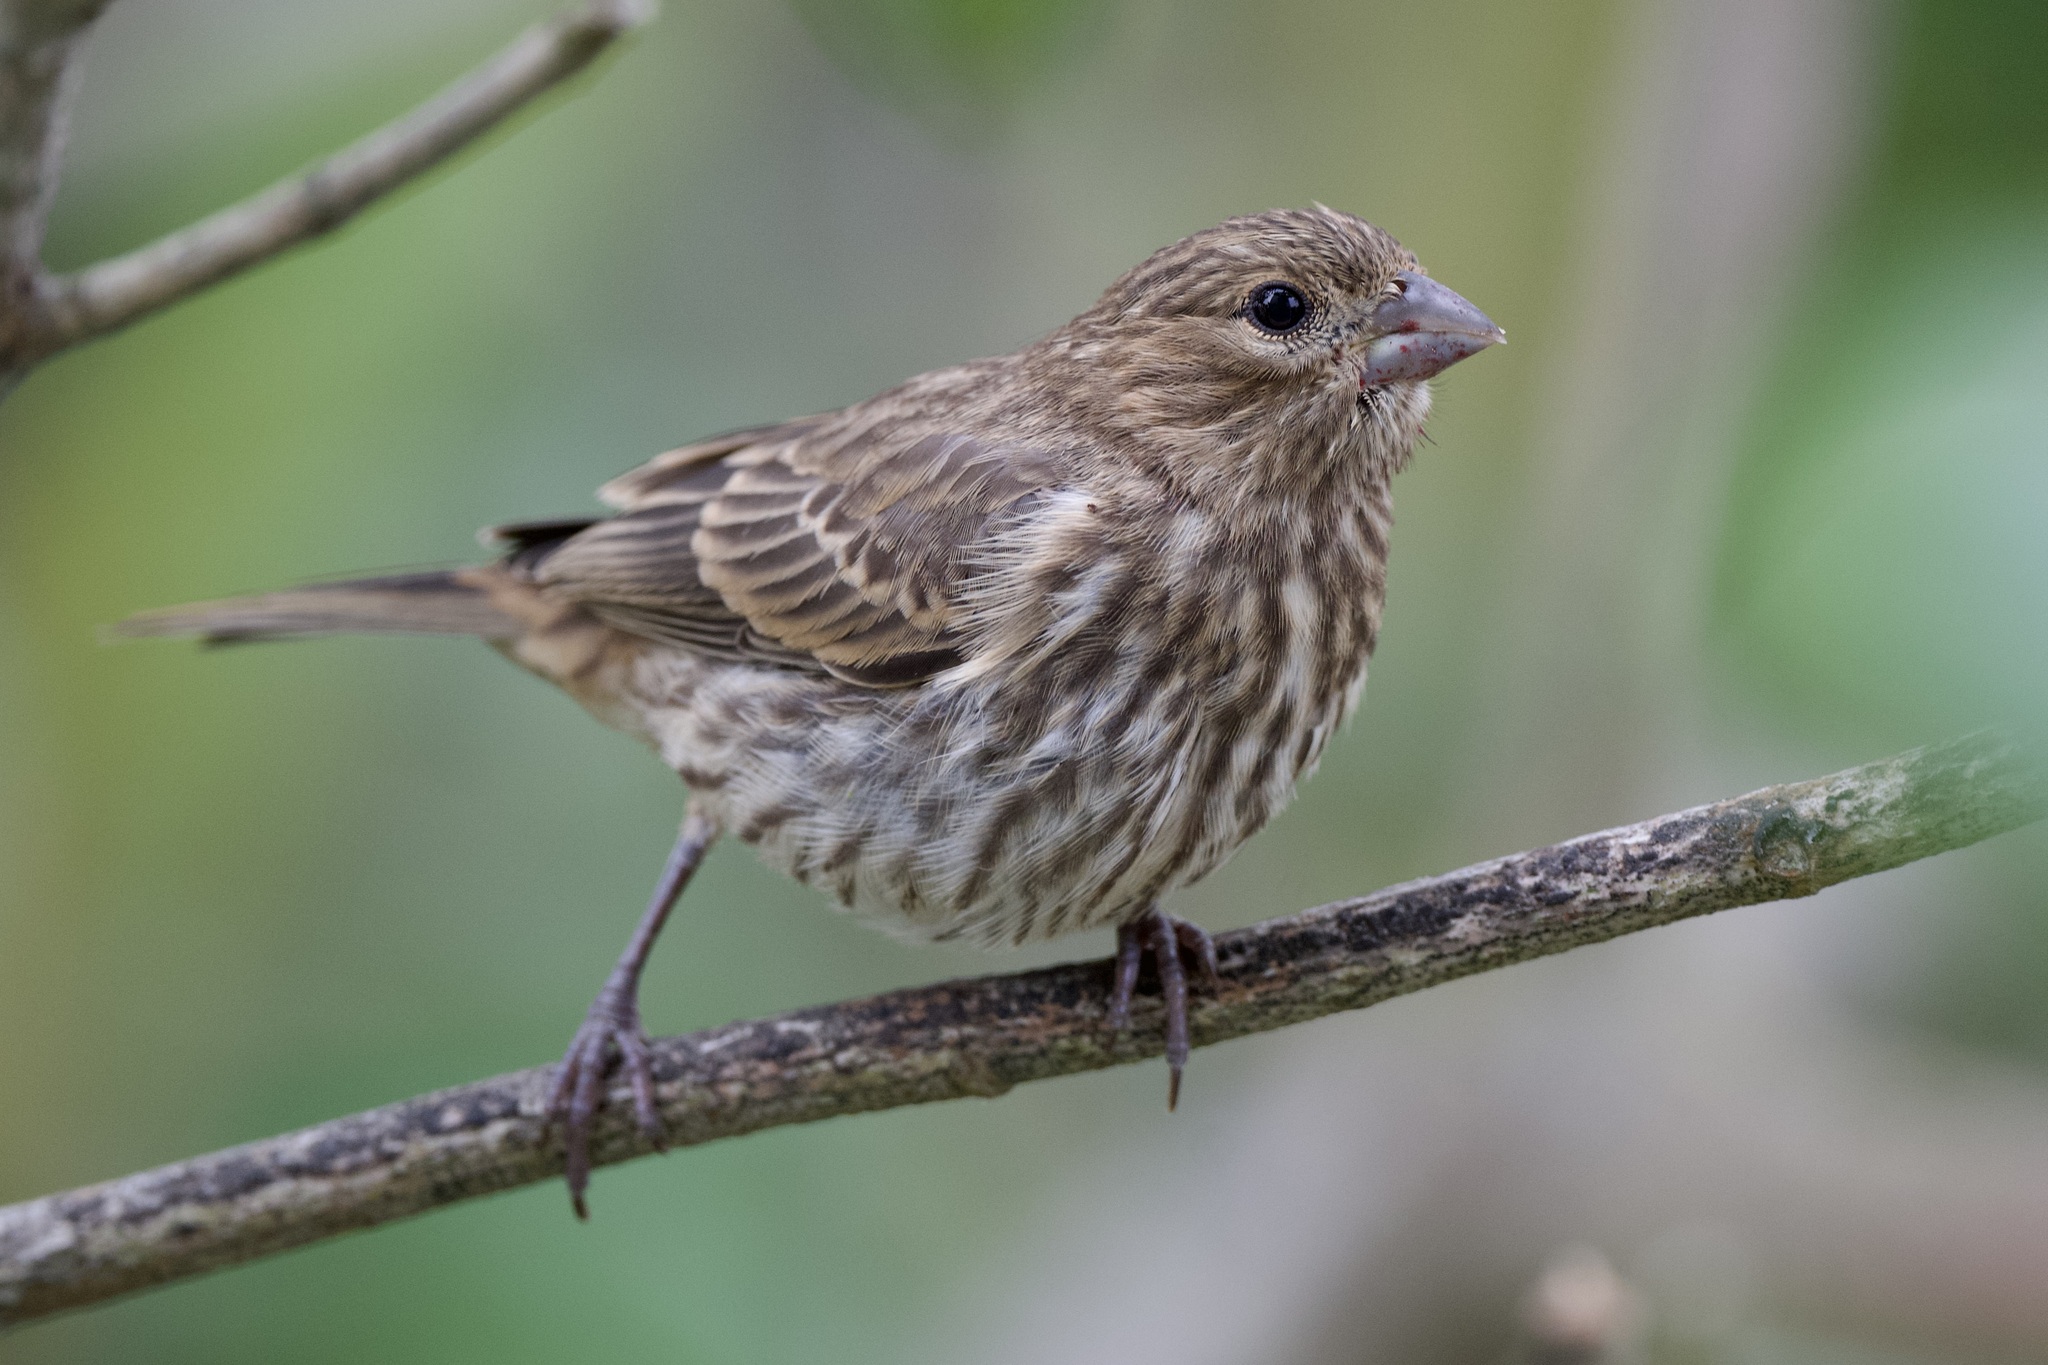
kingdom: Animalia
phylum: Chordata
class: Aves
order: Passeriformes
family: Fringillidae
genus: Haemorhous
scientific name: Haemorhous mexicanus
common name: House finch
